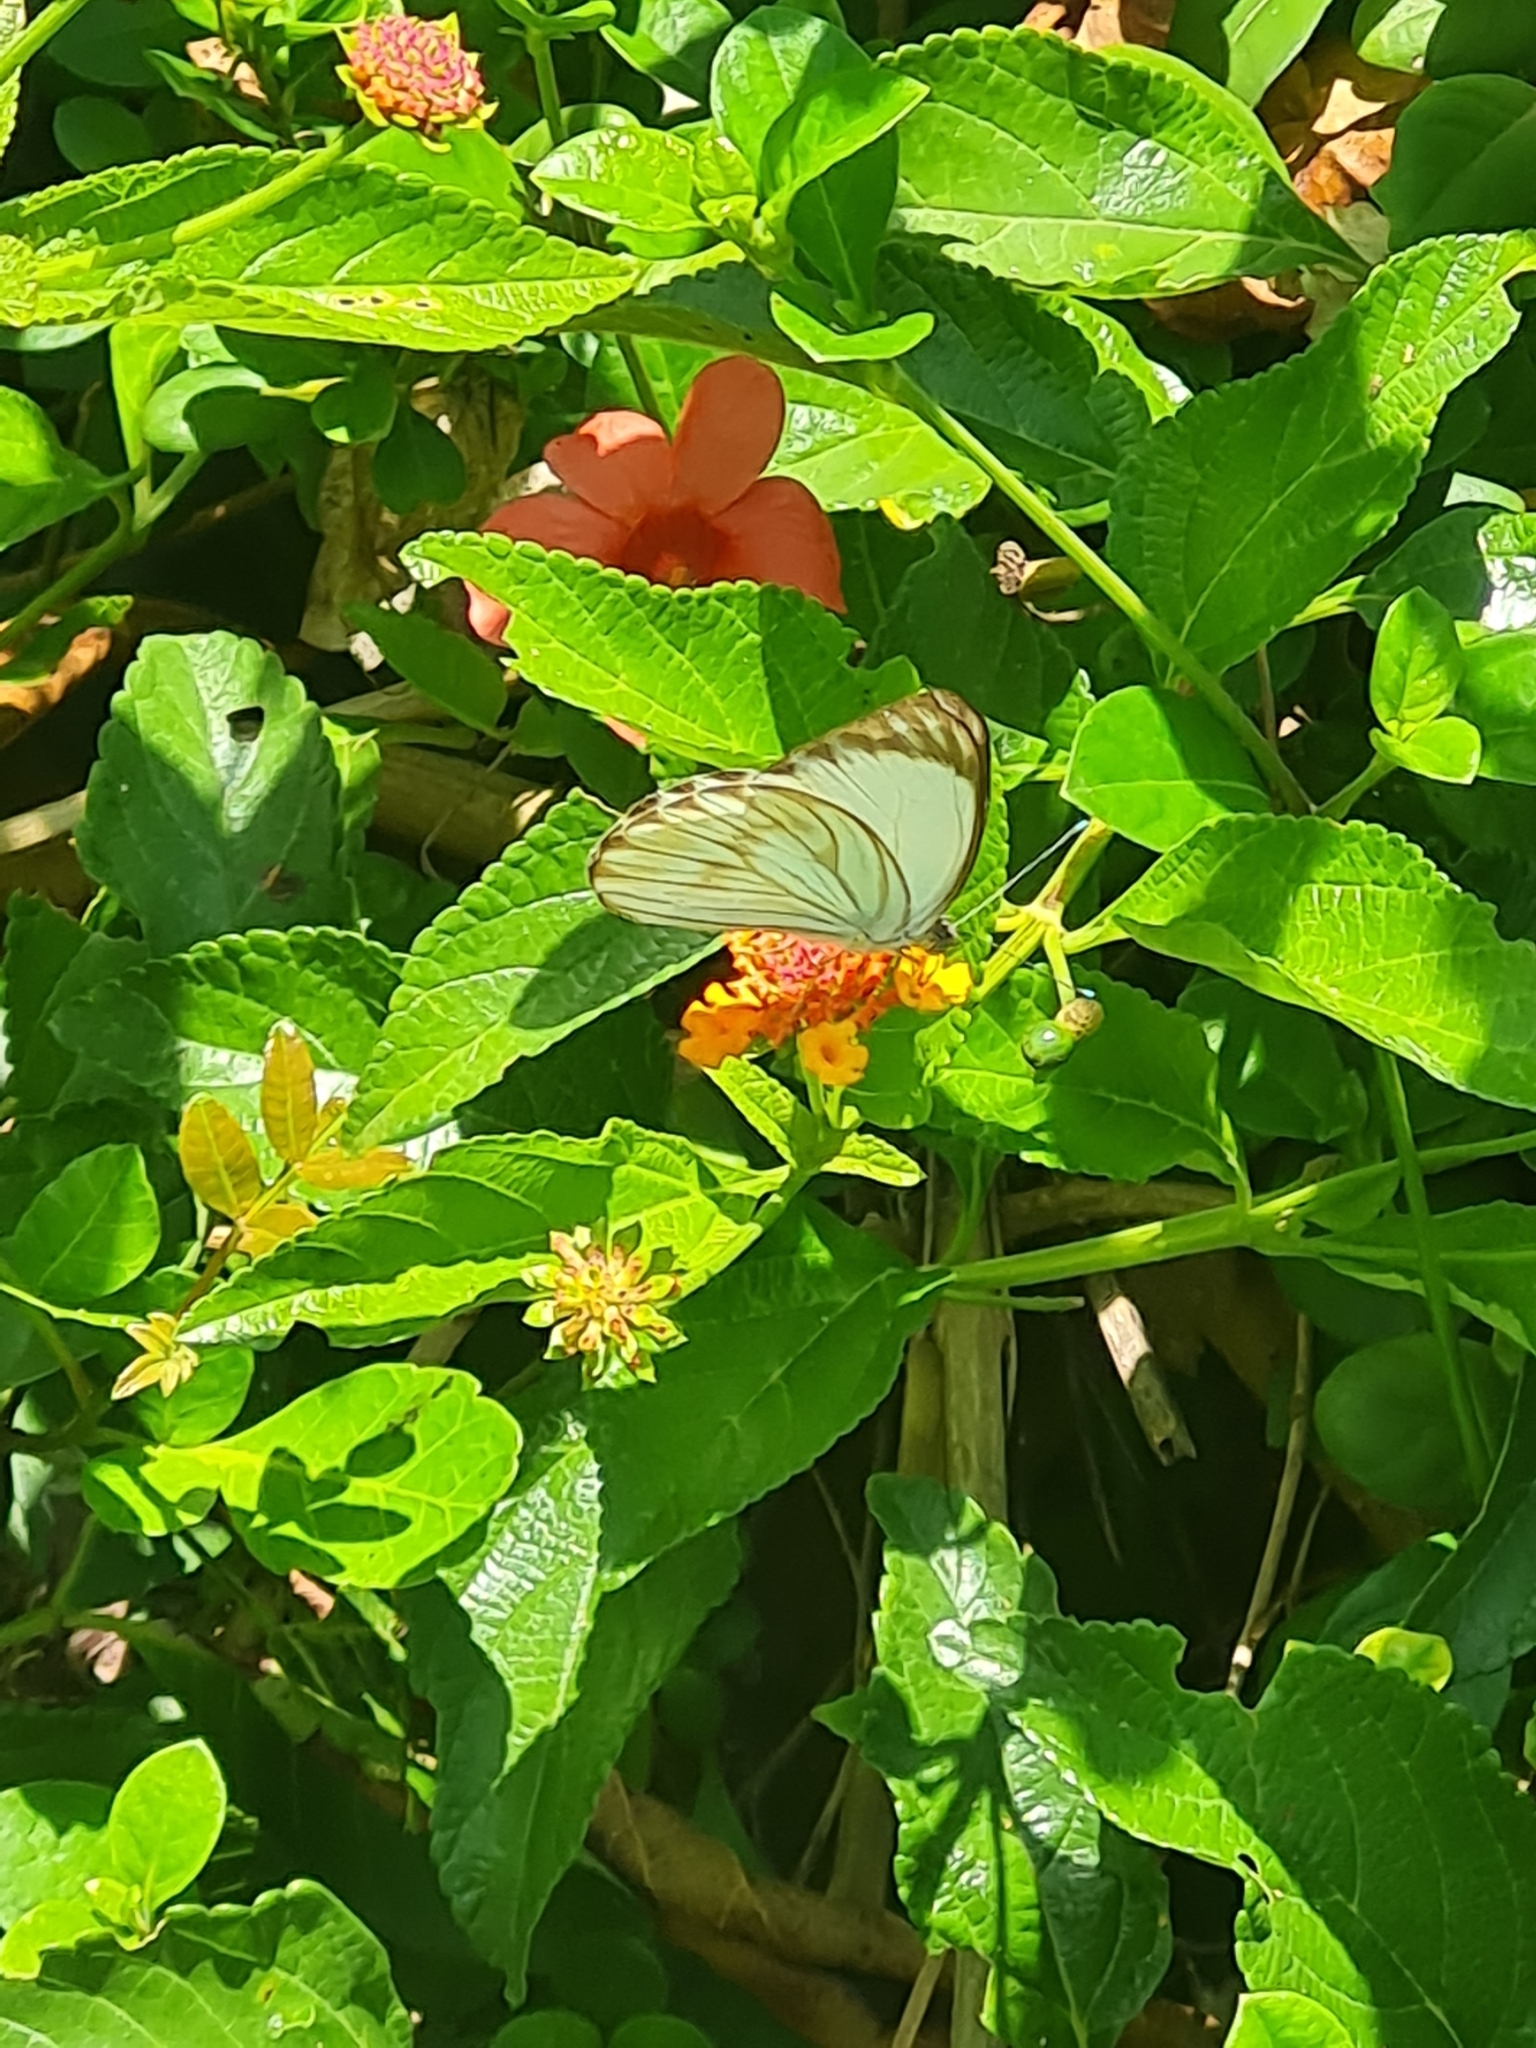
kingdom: Animalia
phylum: Arthropoda
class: Insecta
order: Lepidoptera
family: Pieridae
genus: Ascia
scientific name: Ascia monuste
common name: Great southern white
